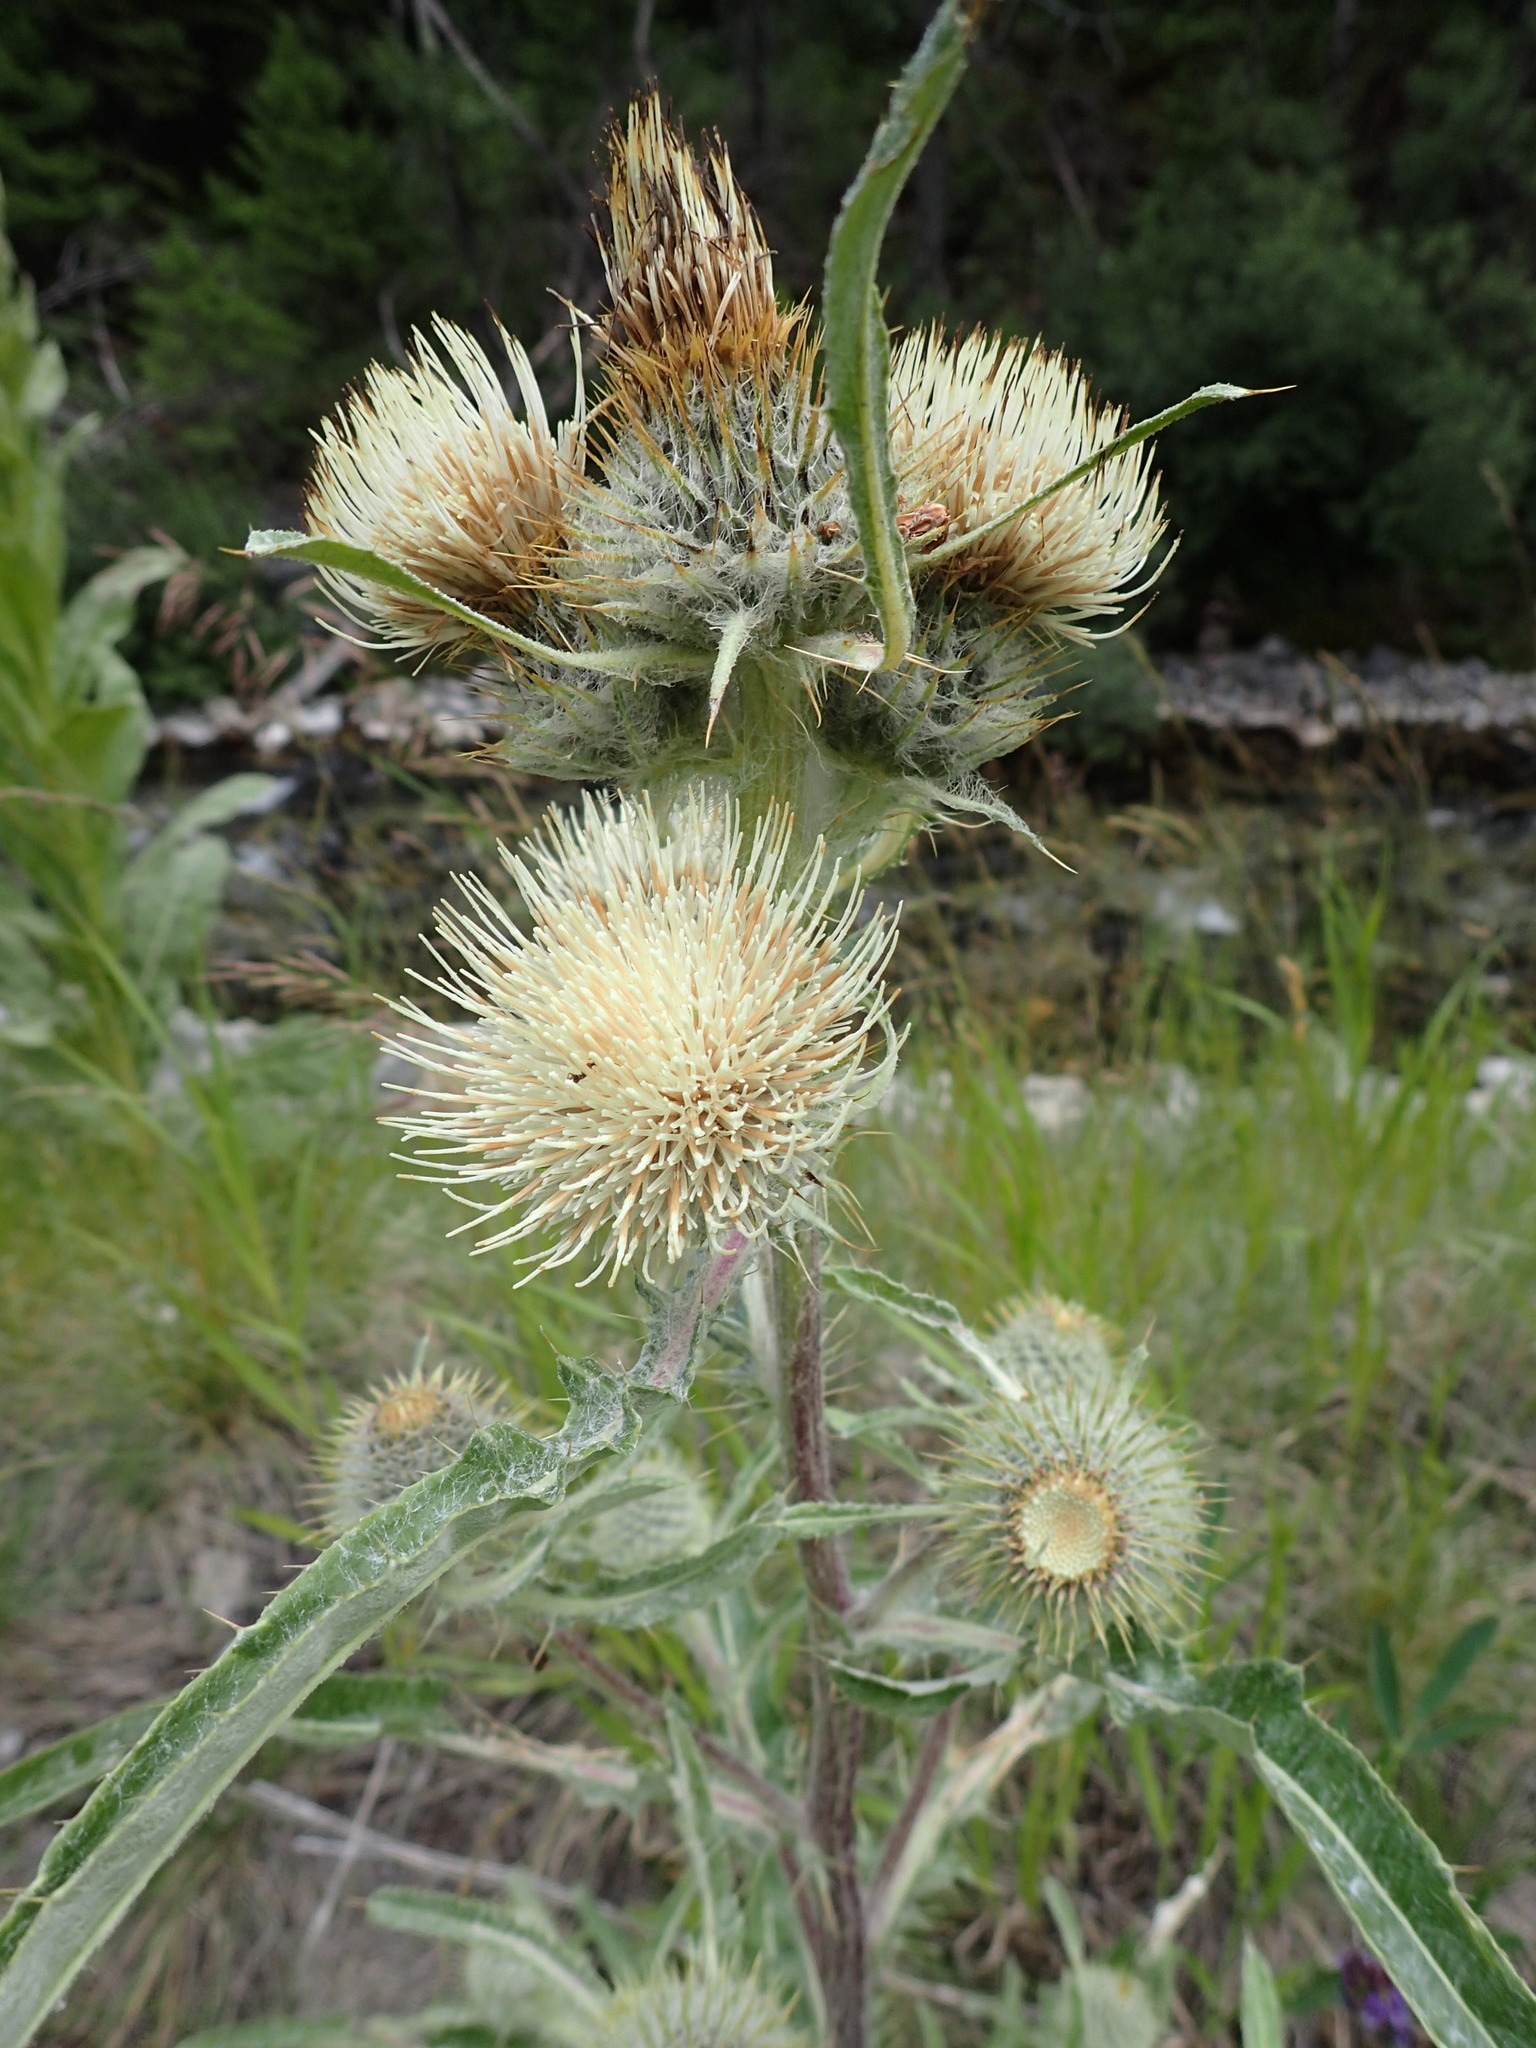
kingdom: Plantae
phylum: Tracheophyta
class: Magnoliopsida
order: Asterales
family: Asteraceae
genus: Cirsium
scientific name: Cirsium hookerianum
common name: Hooker's thistle
